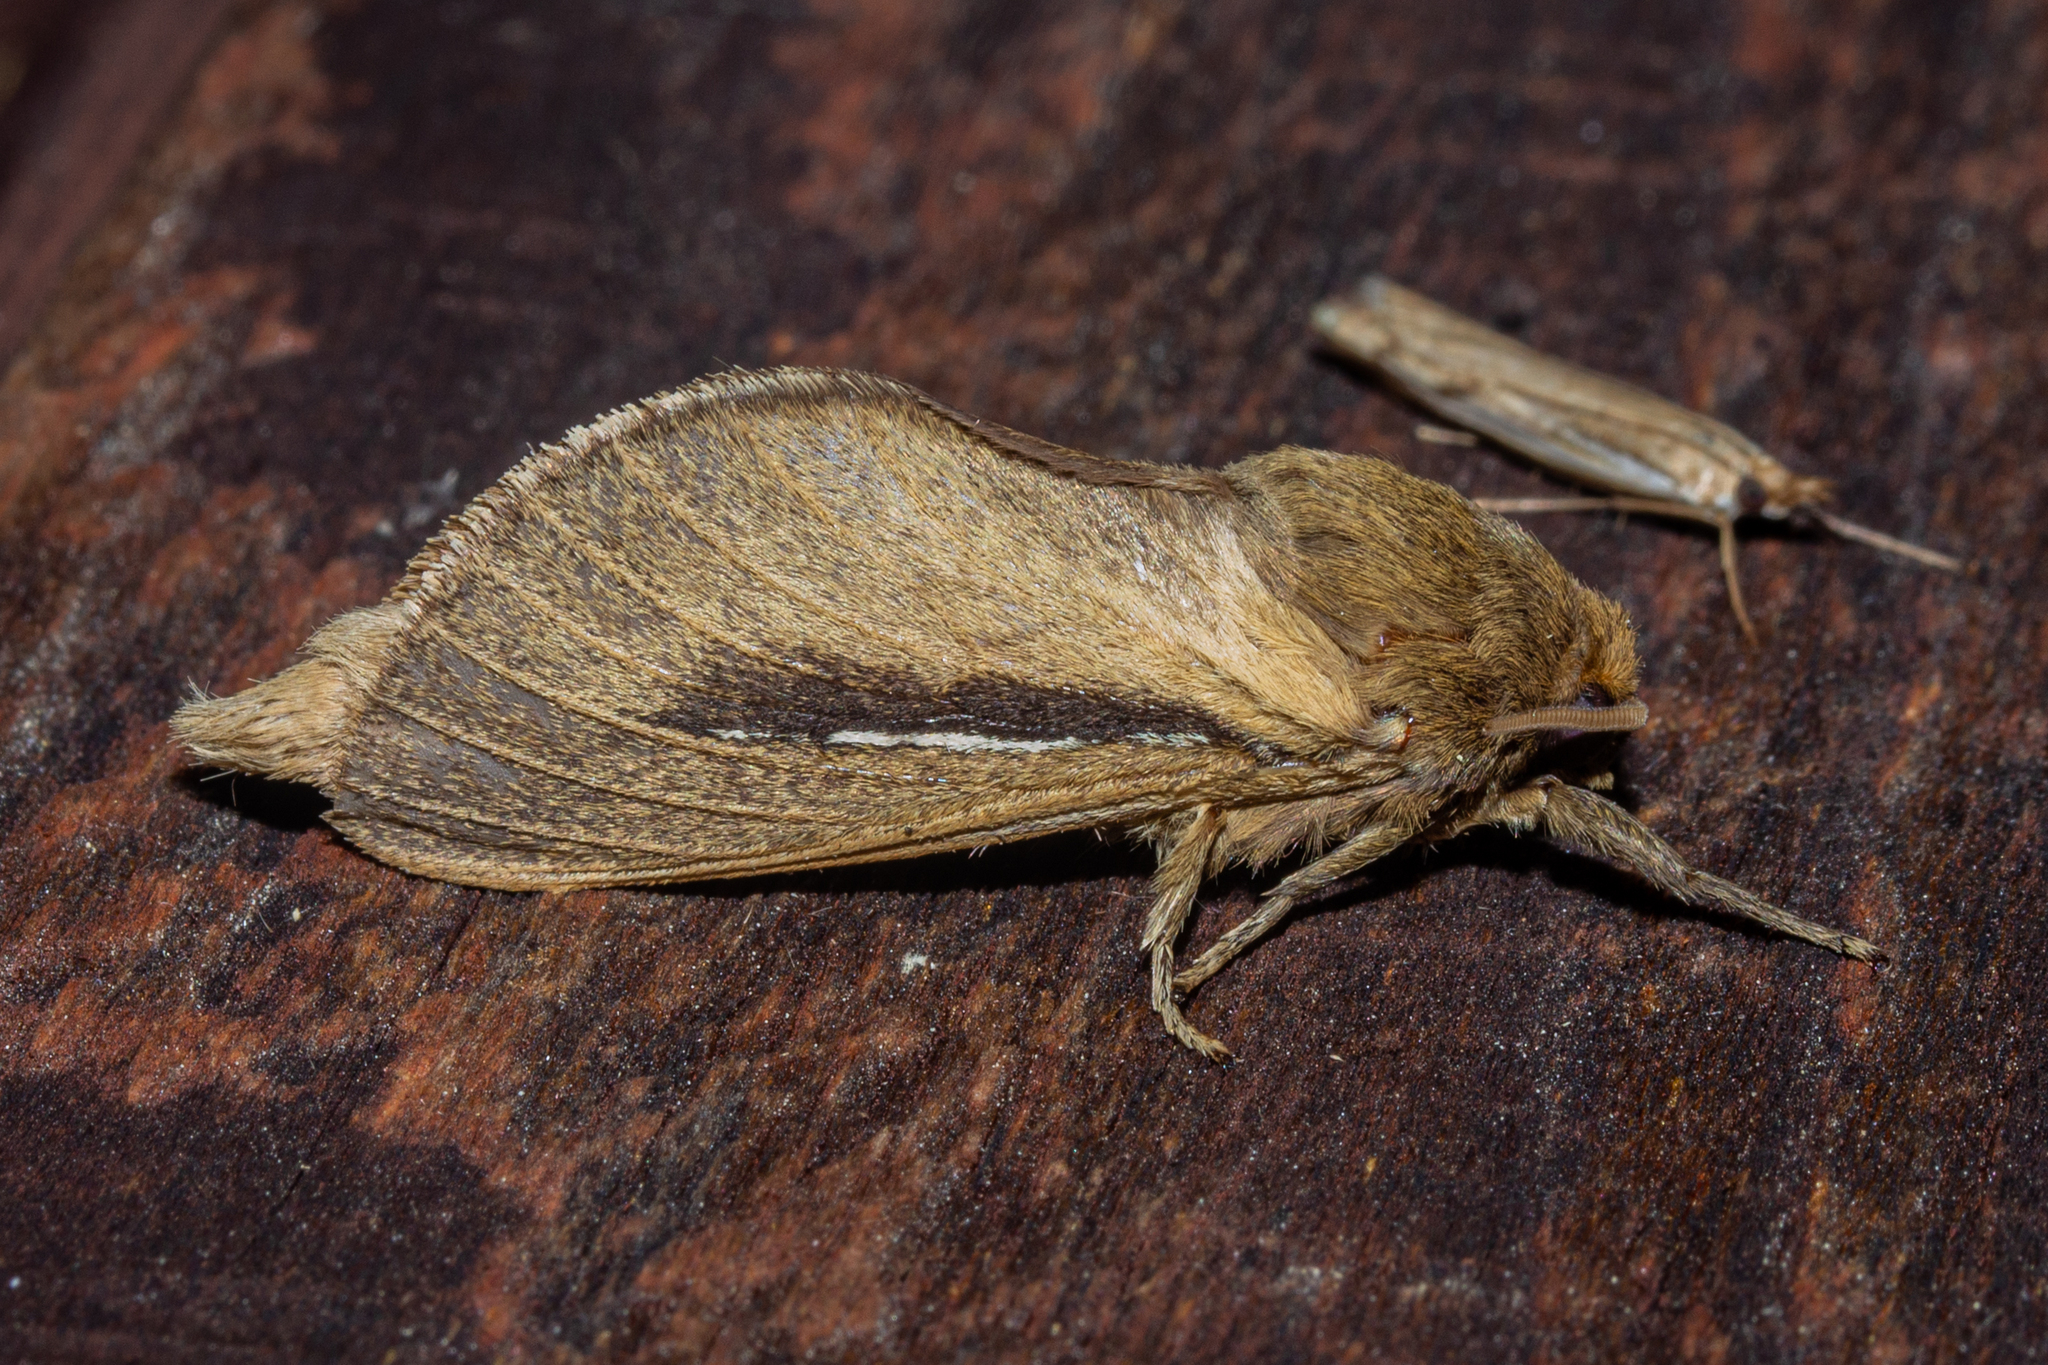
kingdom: Animalia
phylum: Arthropoda
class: Insecta
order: Lepidoptera
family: Hepialidae
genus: Wiseana
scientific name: Wiseana umbraculatus
